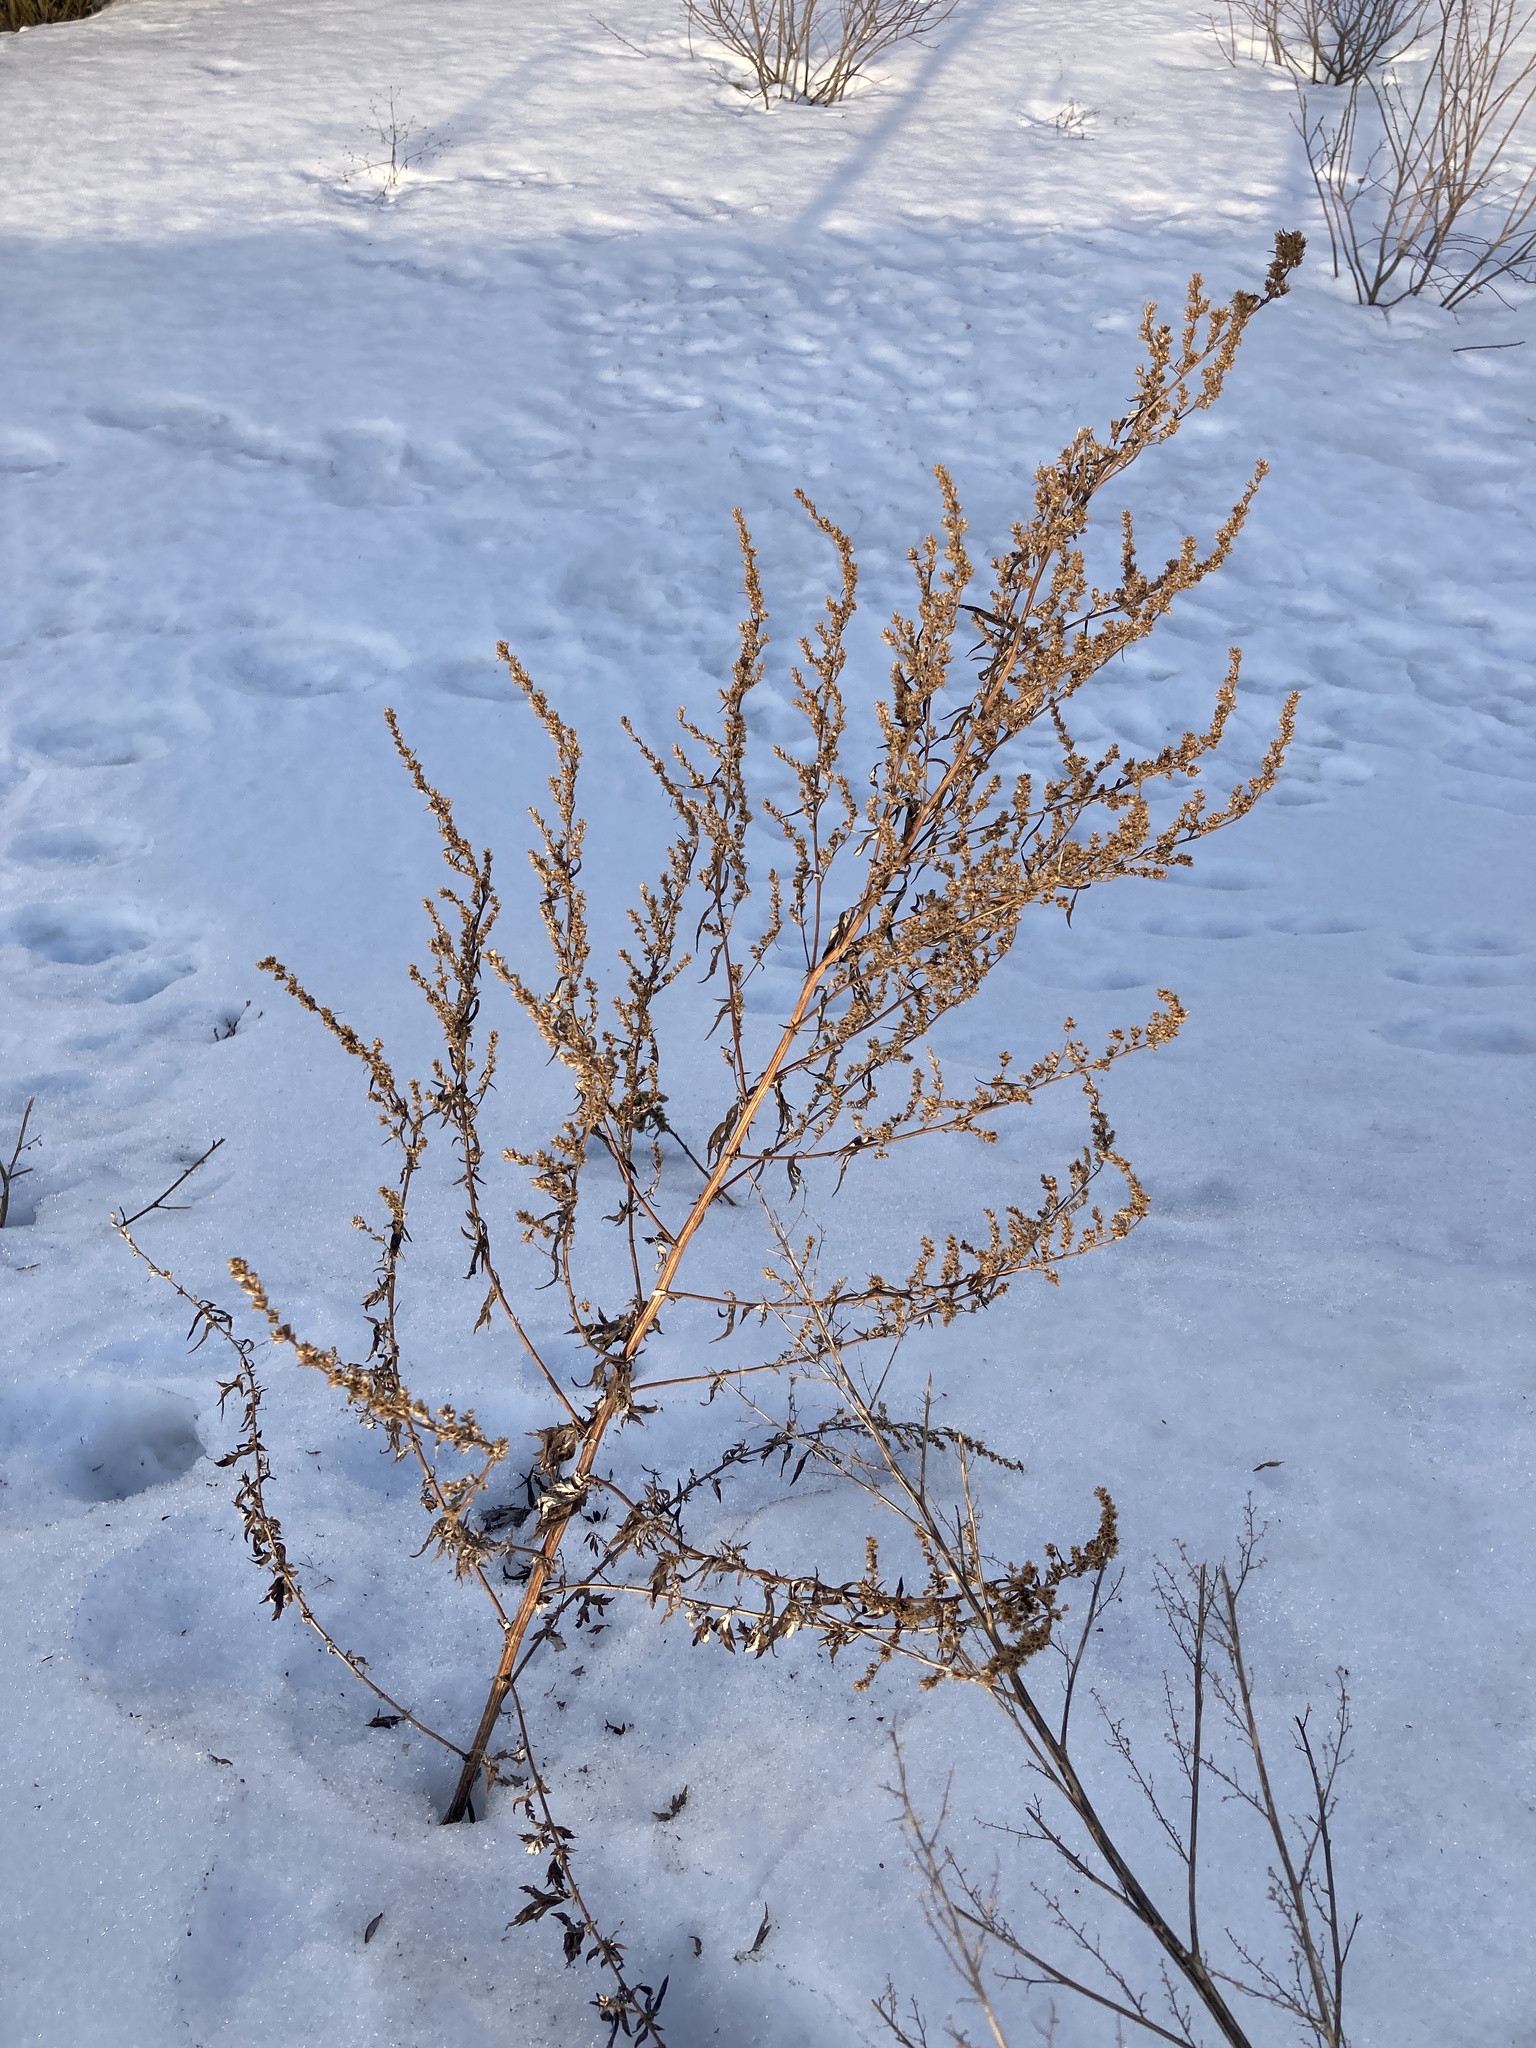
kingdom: Plantae
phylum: Tracheophyta
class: Magnoliopsida
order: Asterales
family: Asteraceae
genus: Artemisia
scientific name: Artemisia vulgaris
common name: Mugwort
